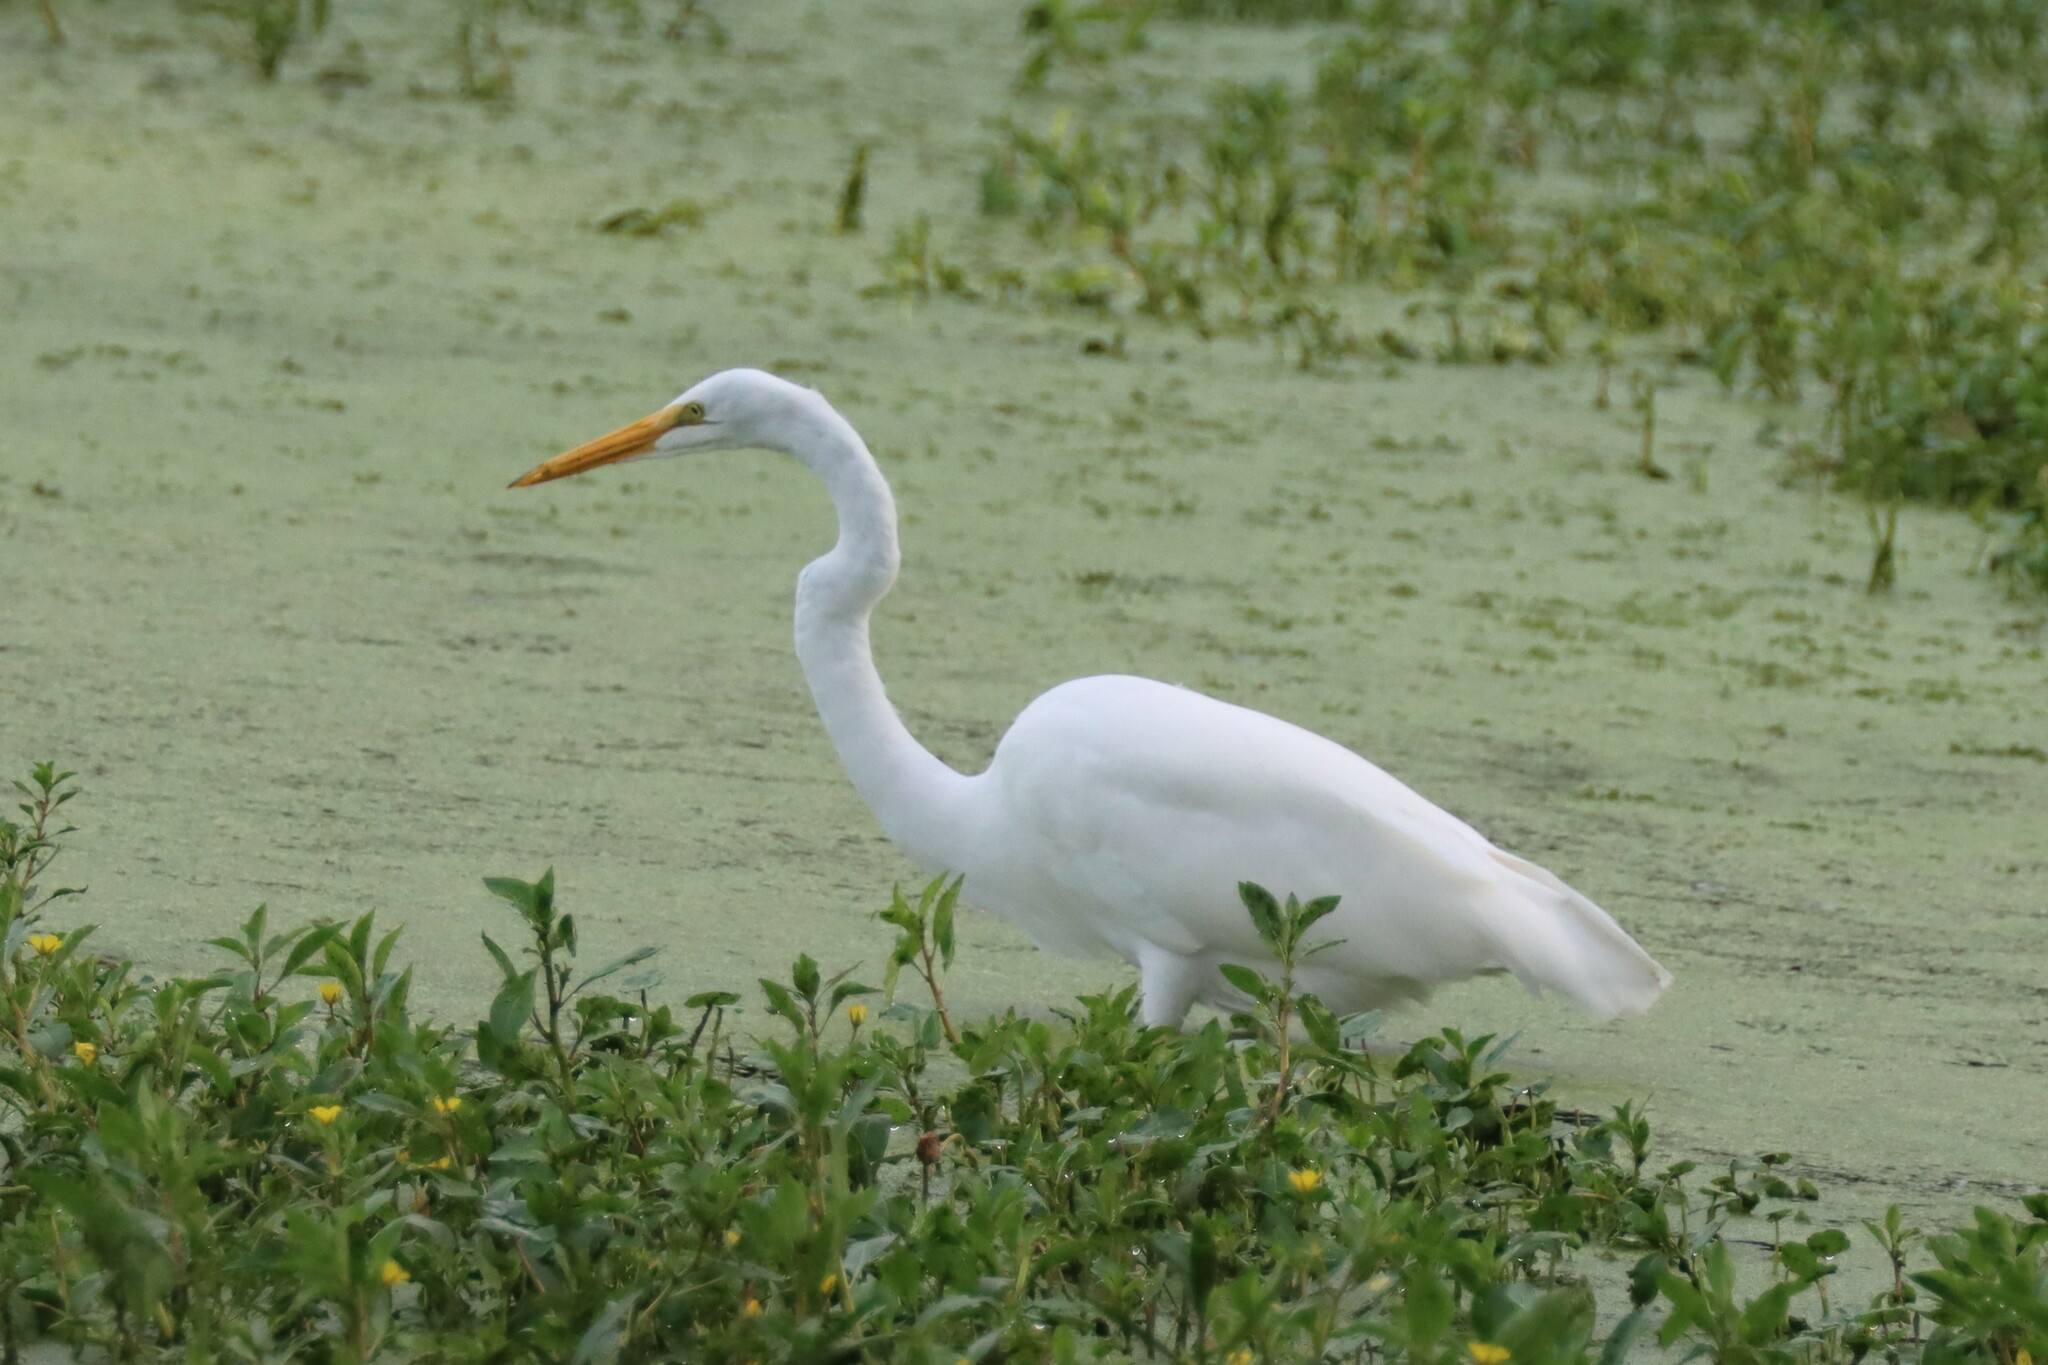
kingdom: Animalia
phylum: Chordata
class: Aves
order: Pelecaniformes
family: Ardeidae
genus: Ardea
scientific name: Ardea alba
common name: Great egret
